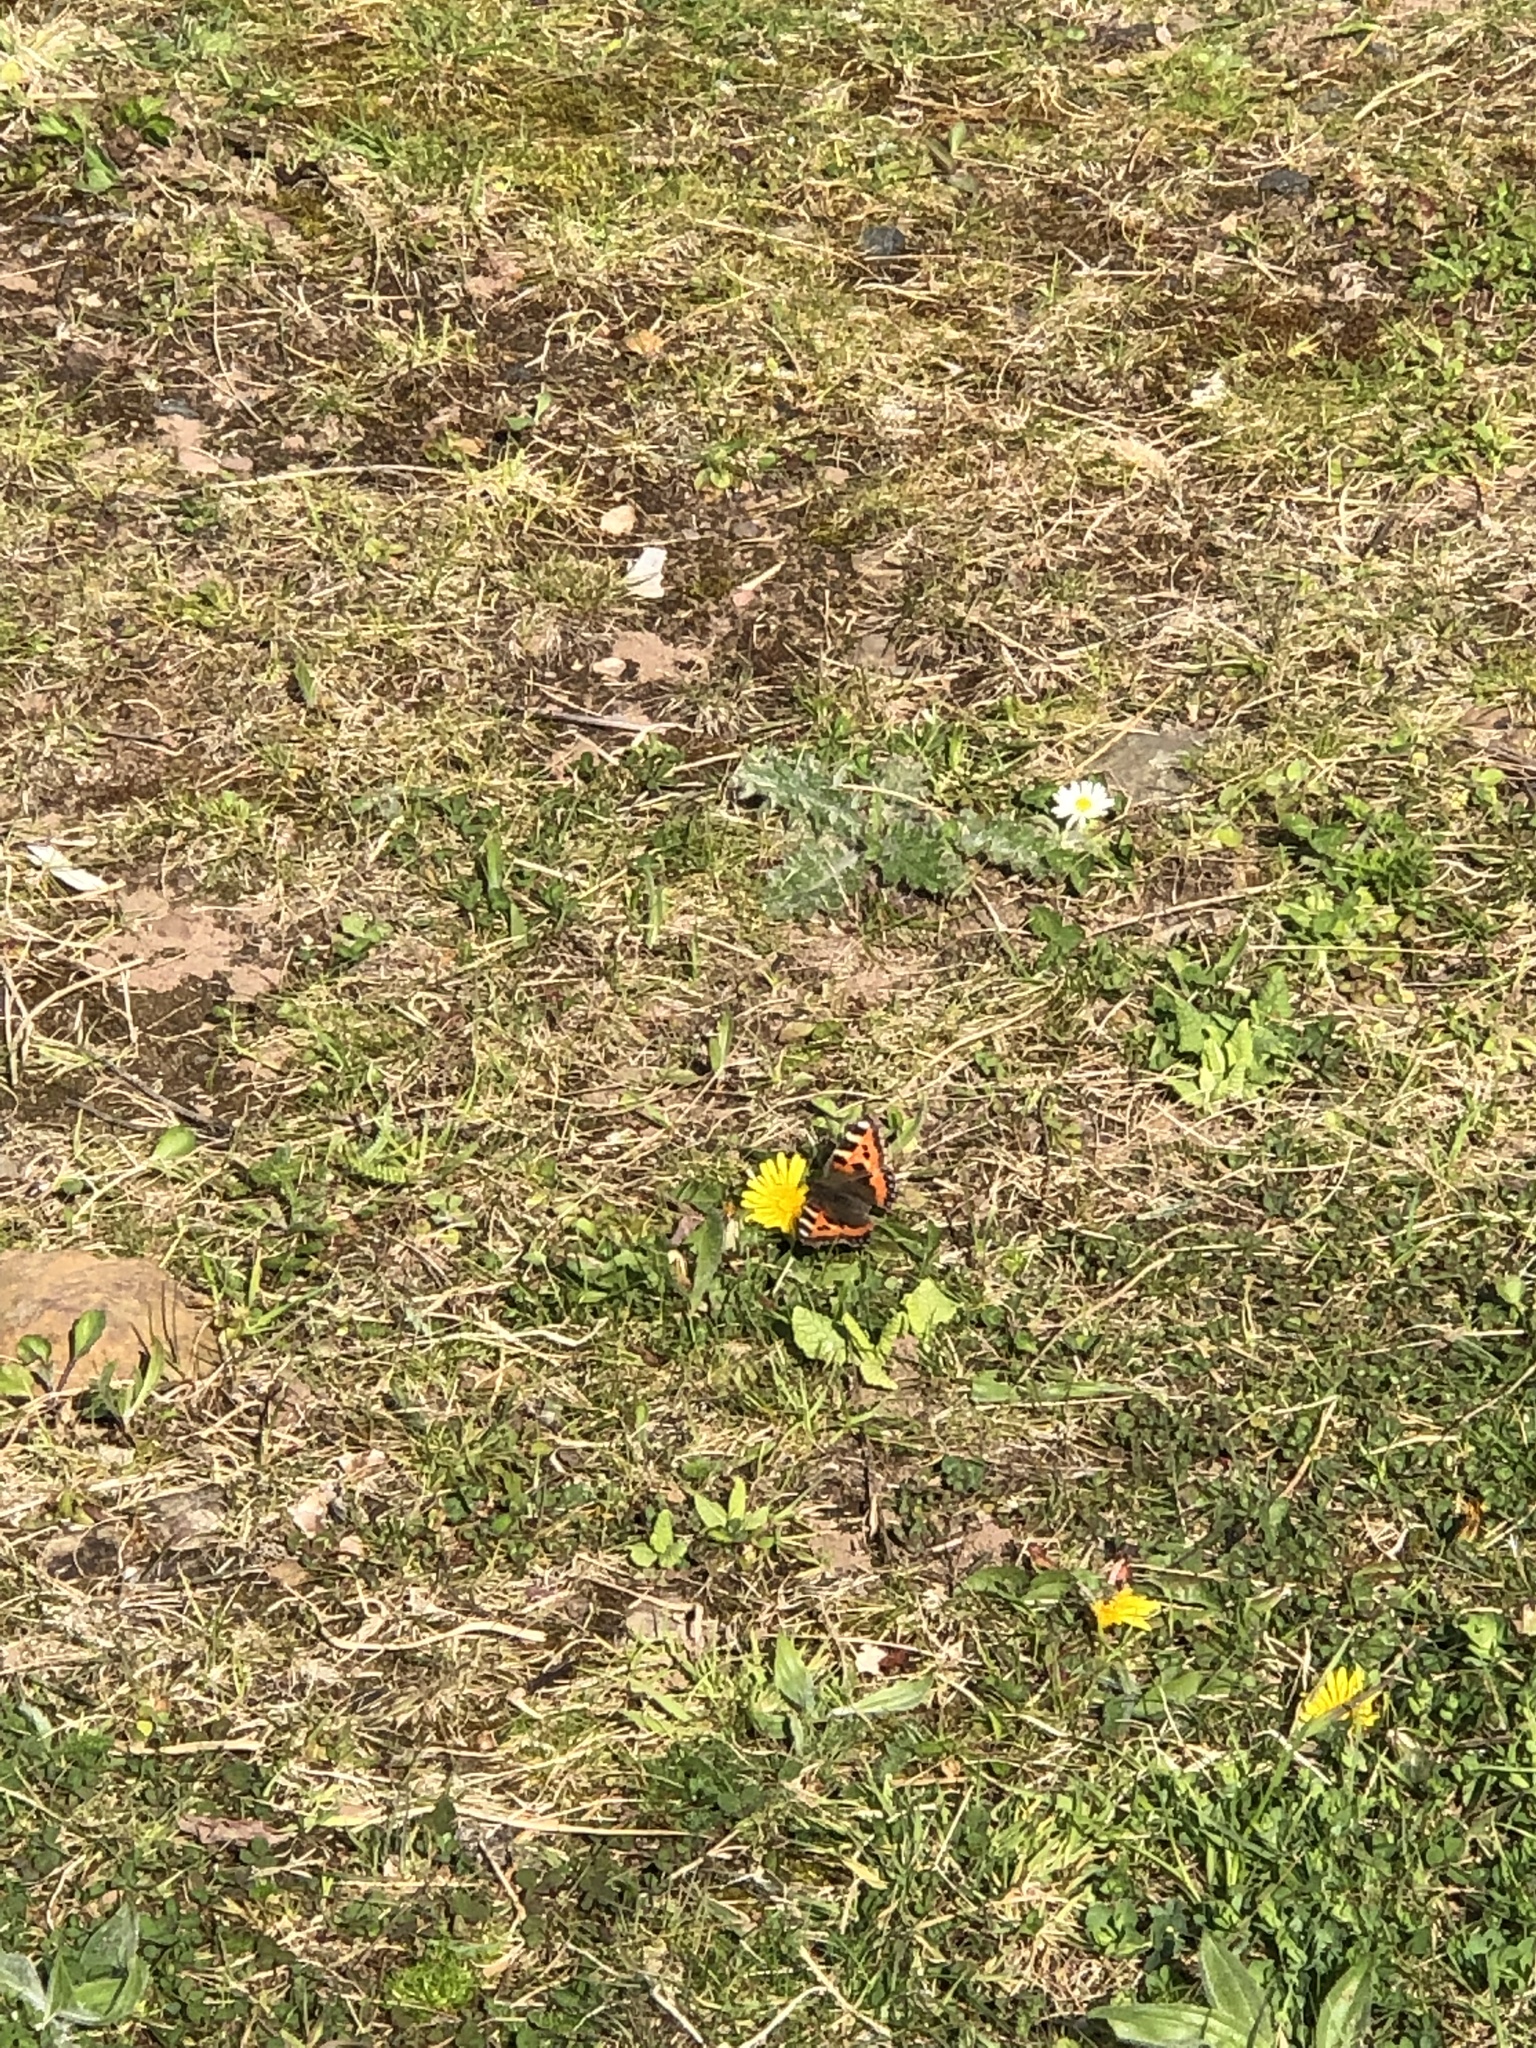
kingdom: Animalia
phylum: Arthropoda
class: Insecta
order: Lepidoptera
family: Nymphalidae
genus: Aglais
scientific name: Aglais urticae
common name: Small tortoiseshell
